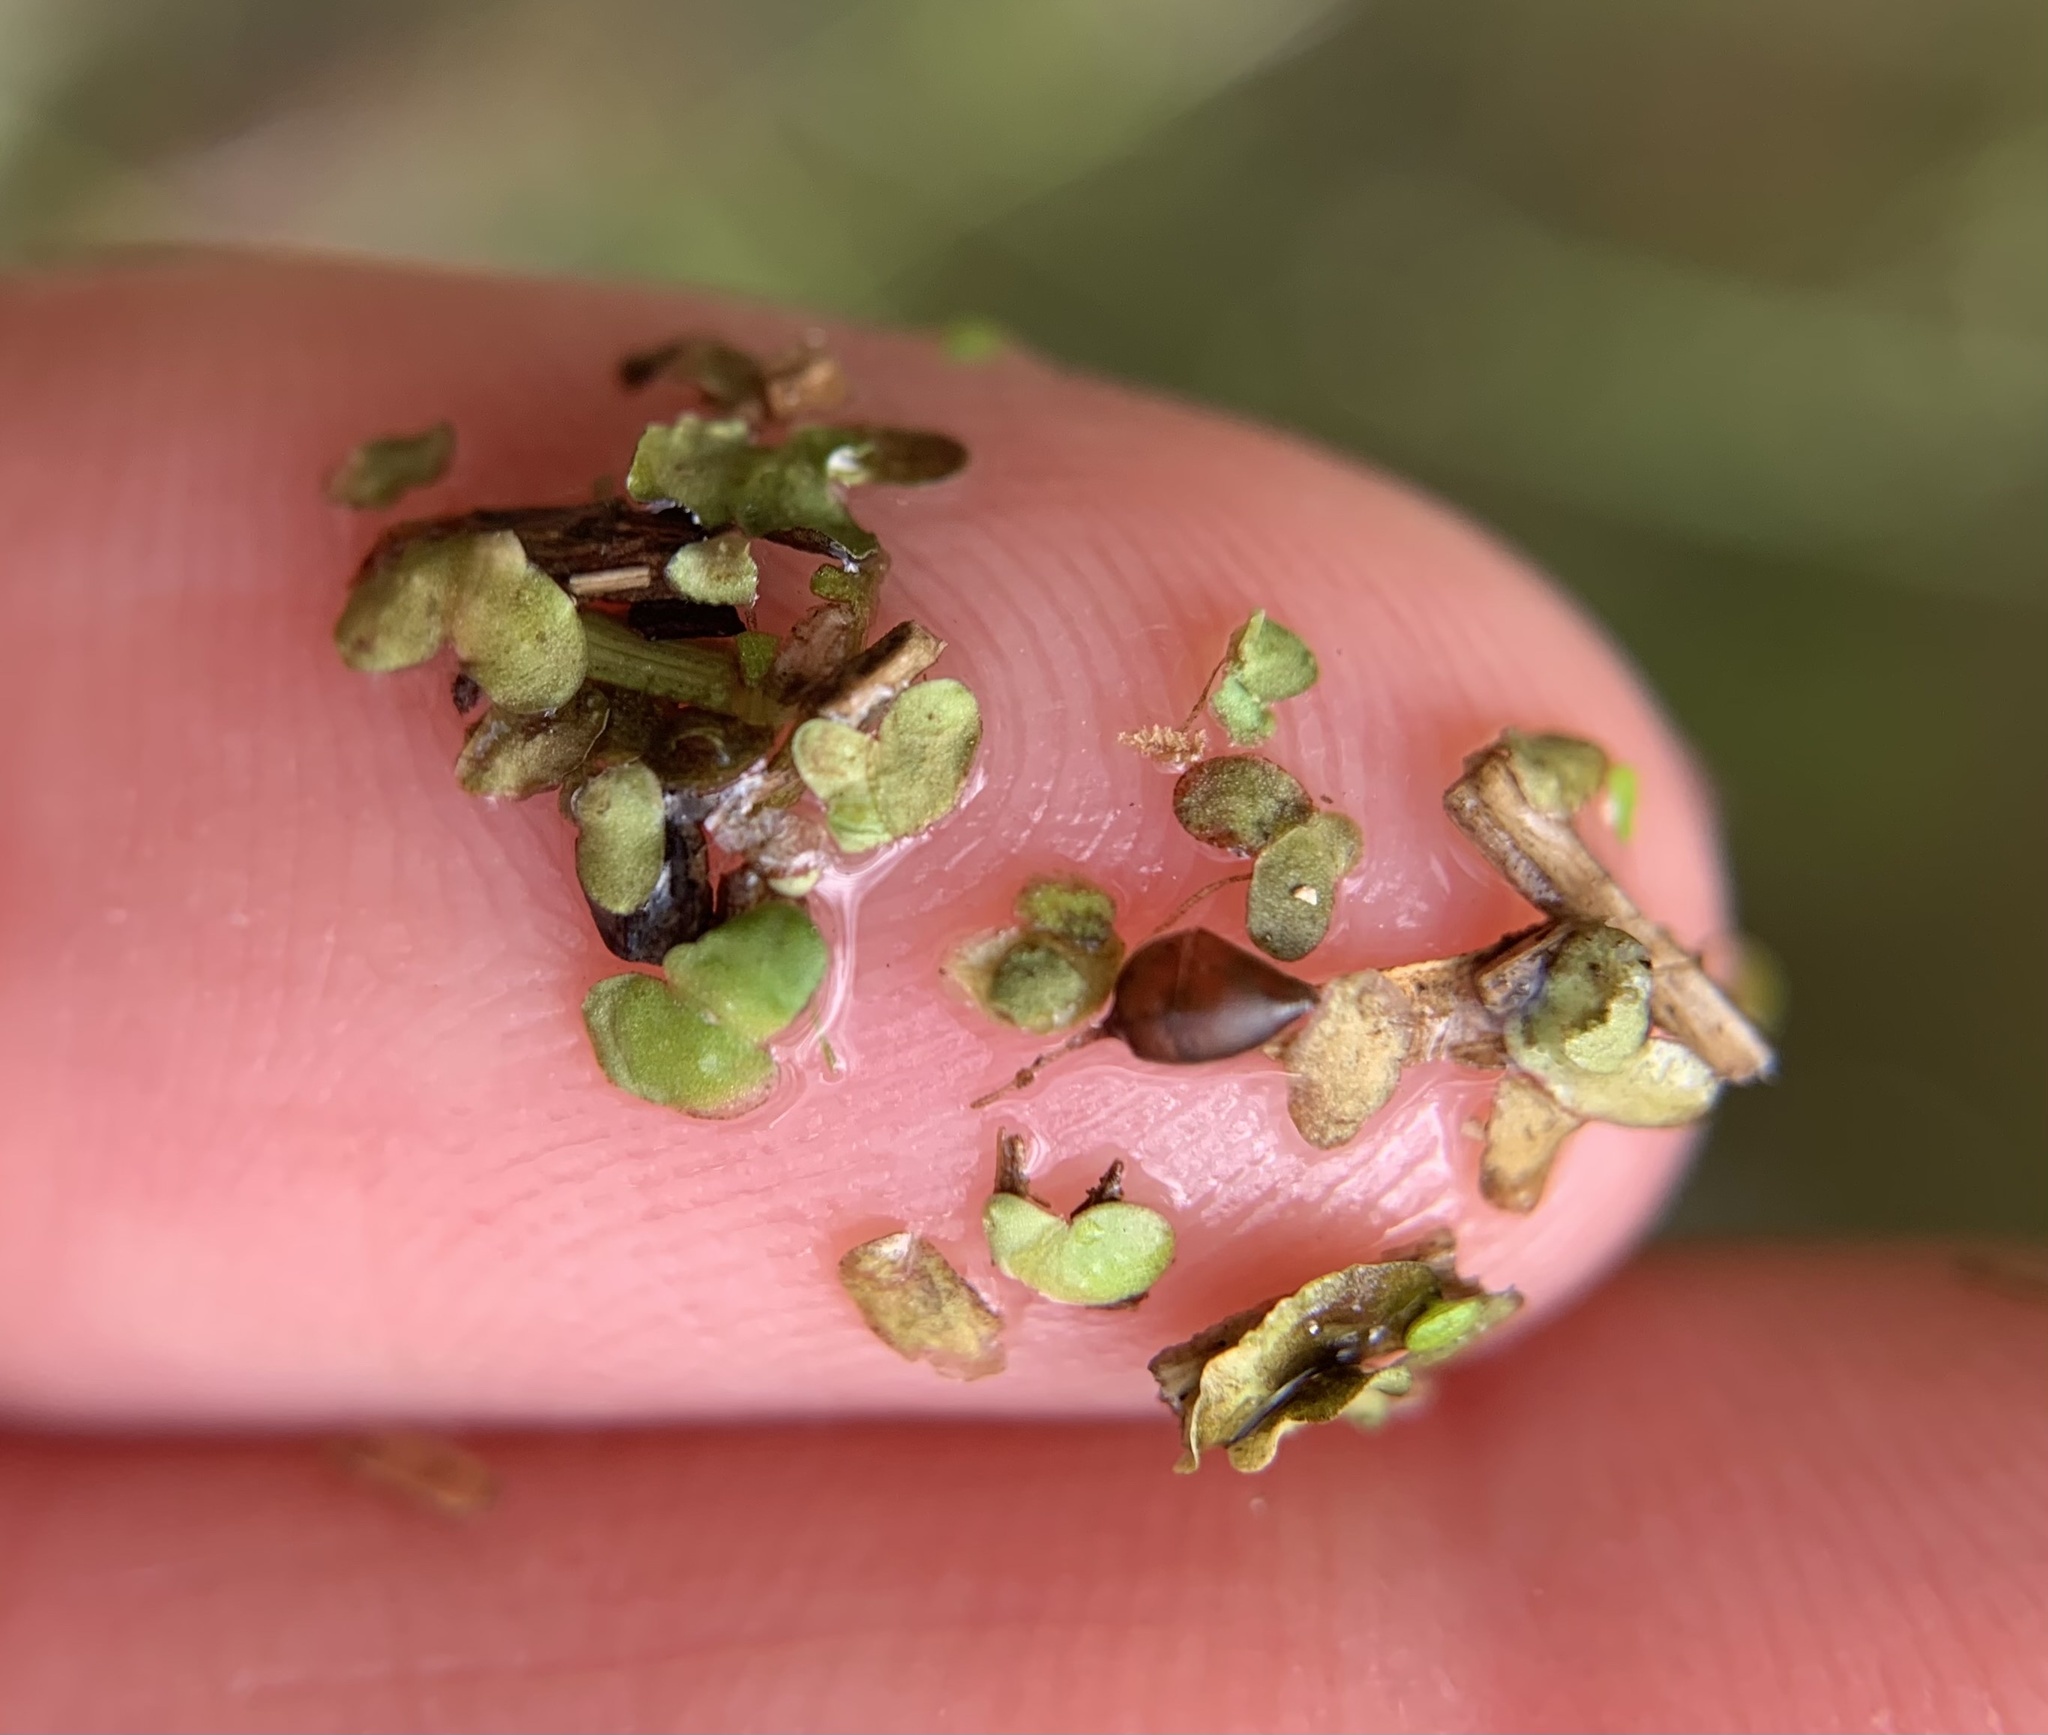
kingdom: Plantae
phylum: Tracheophyta
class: Liliopsida
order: Alismatales
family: Araceae
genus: Lemna
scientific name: Lemna minor
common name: Common duckweed
